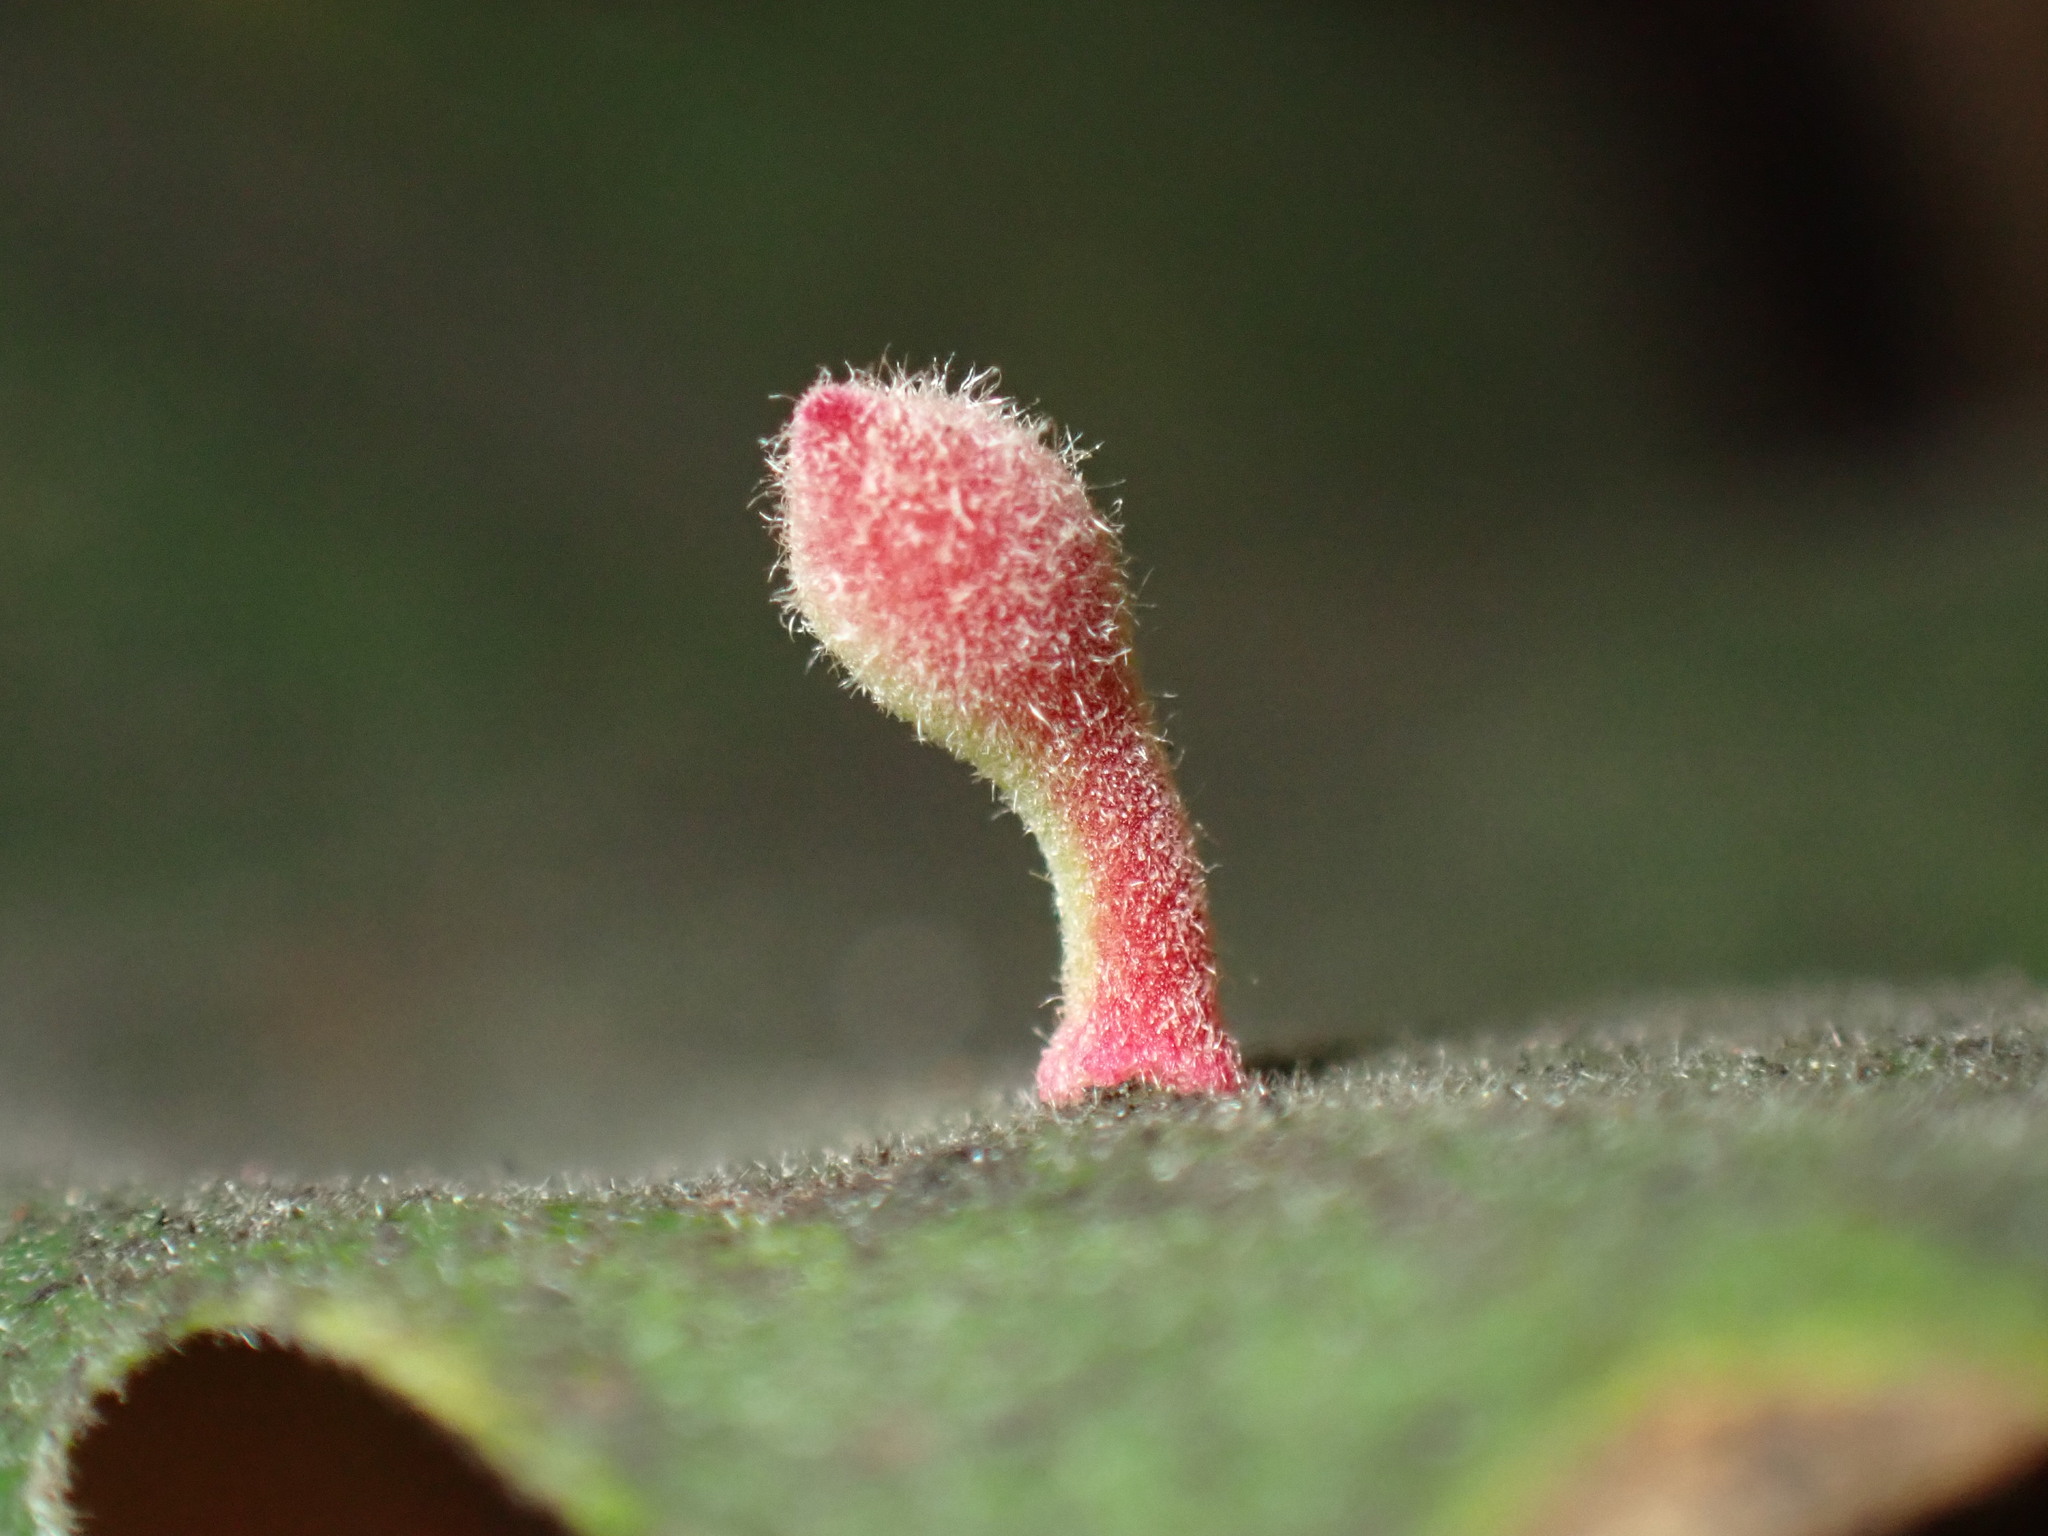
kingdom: Animalia
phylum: Arthropoda
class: Insecta
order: Hymenoptera
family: Cynipidae
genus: Atrusca
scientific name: Atrusca
